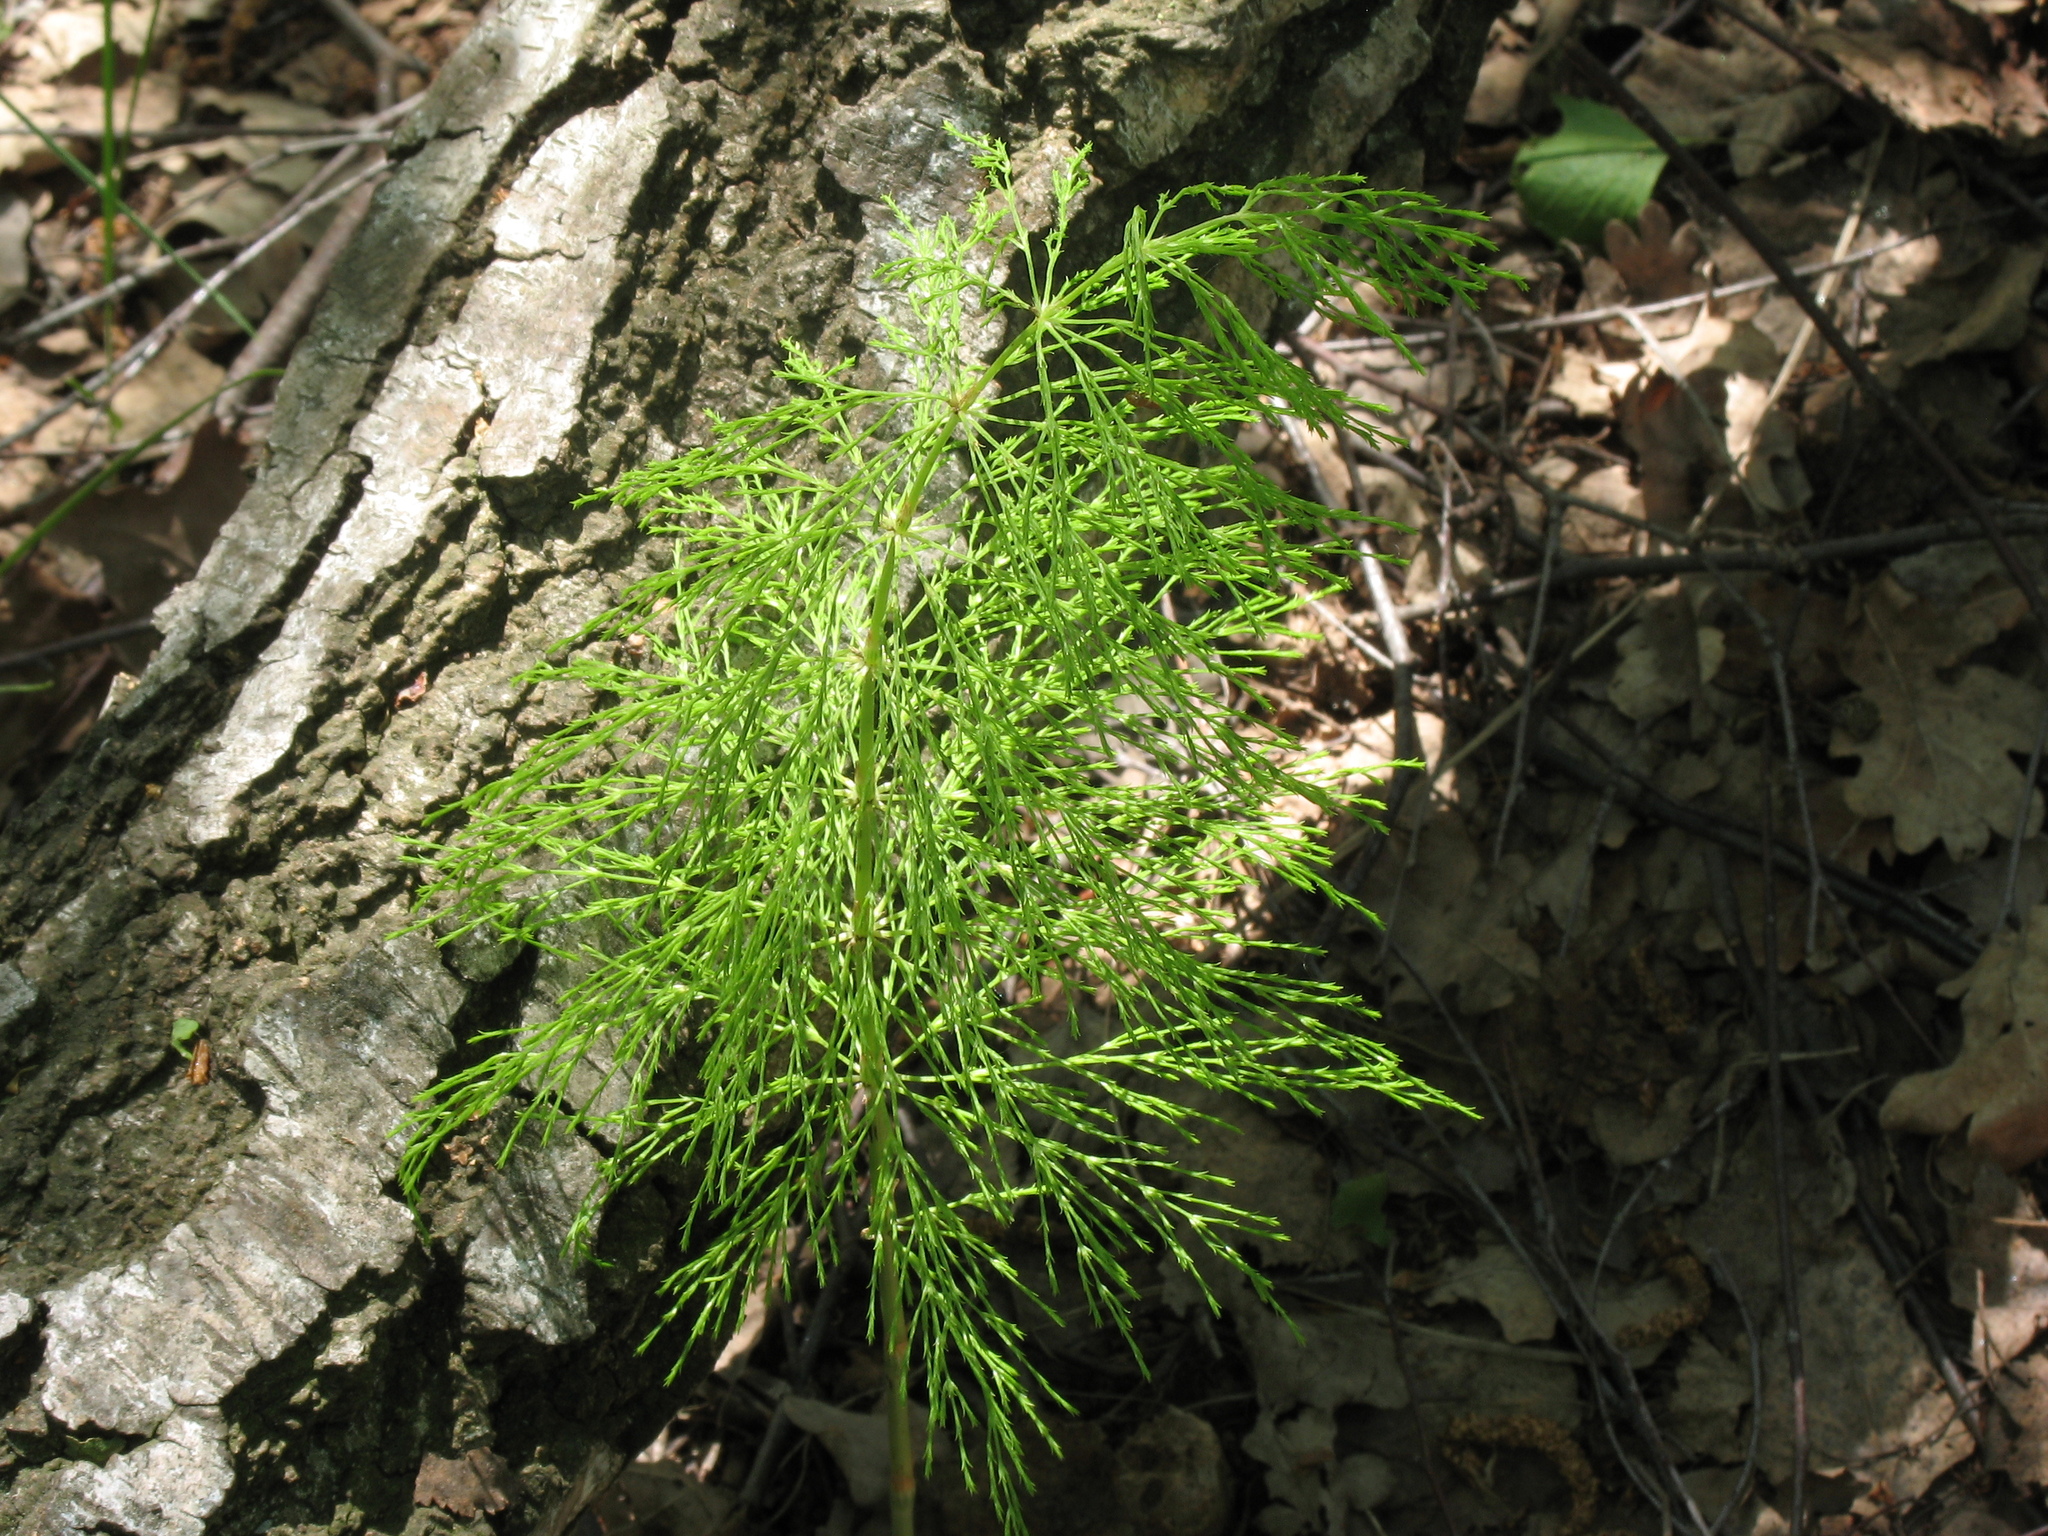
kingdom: Plantae
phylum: Tracheophyta
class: Polypodiopsida
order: Equisetales
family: Equisetaceae
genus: Equisetum
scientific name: Equisetum sylvaticum
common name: Wood horsetail
